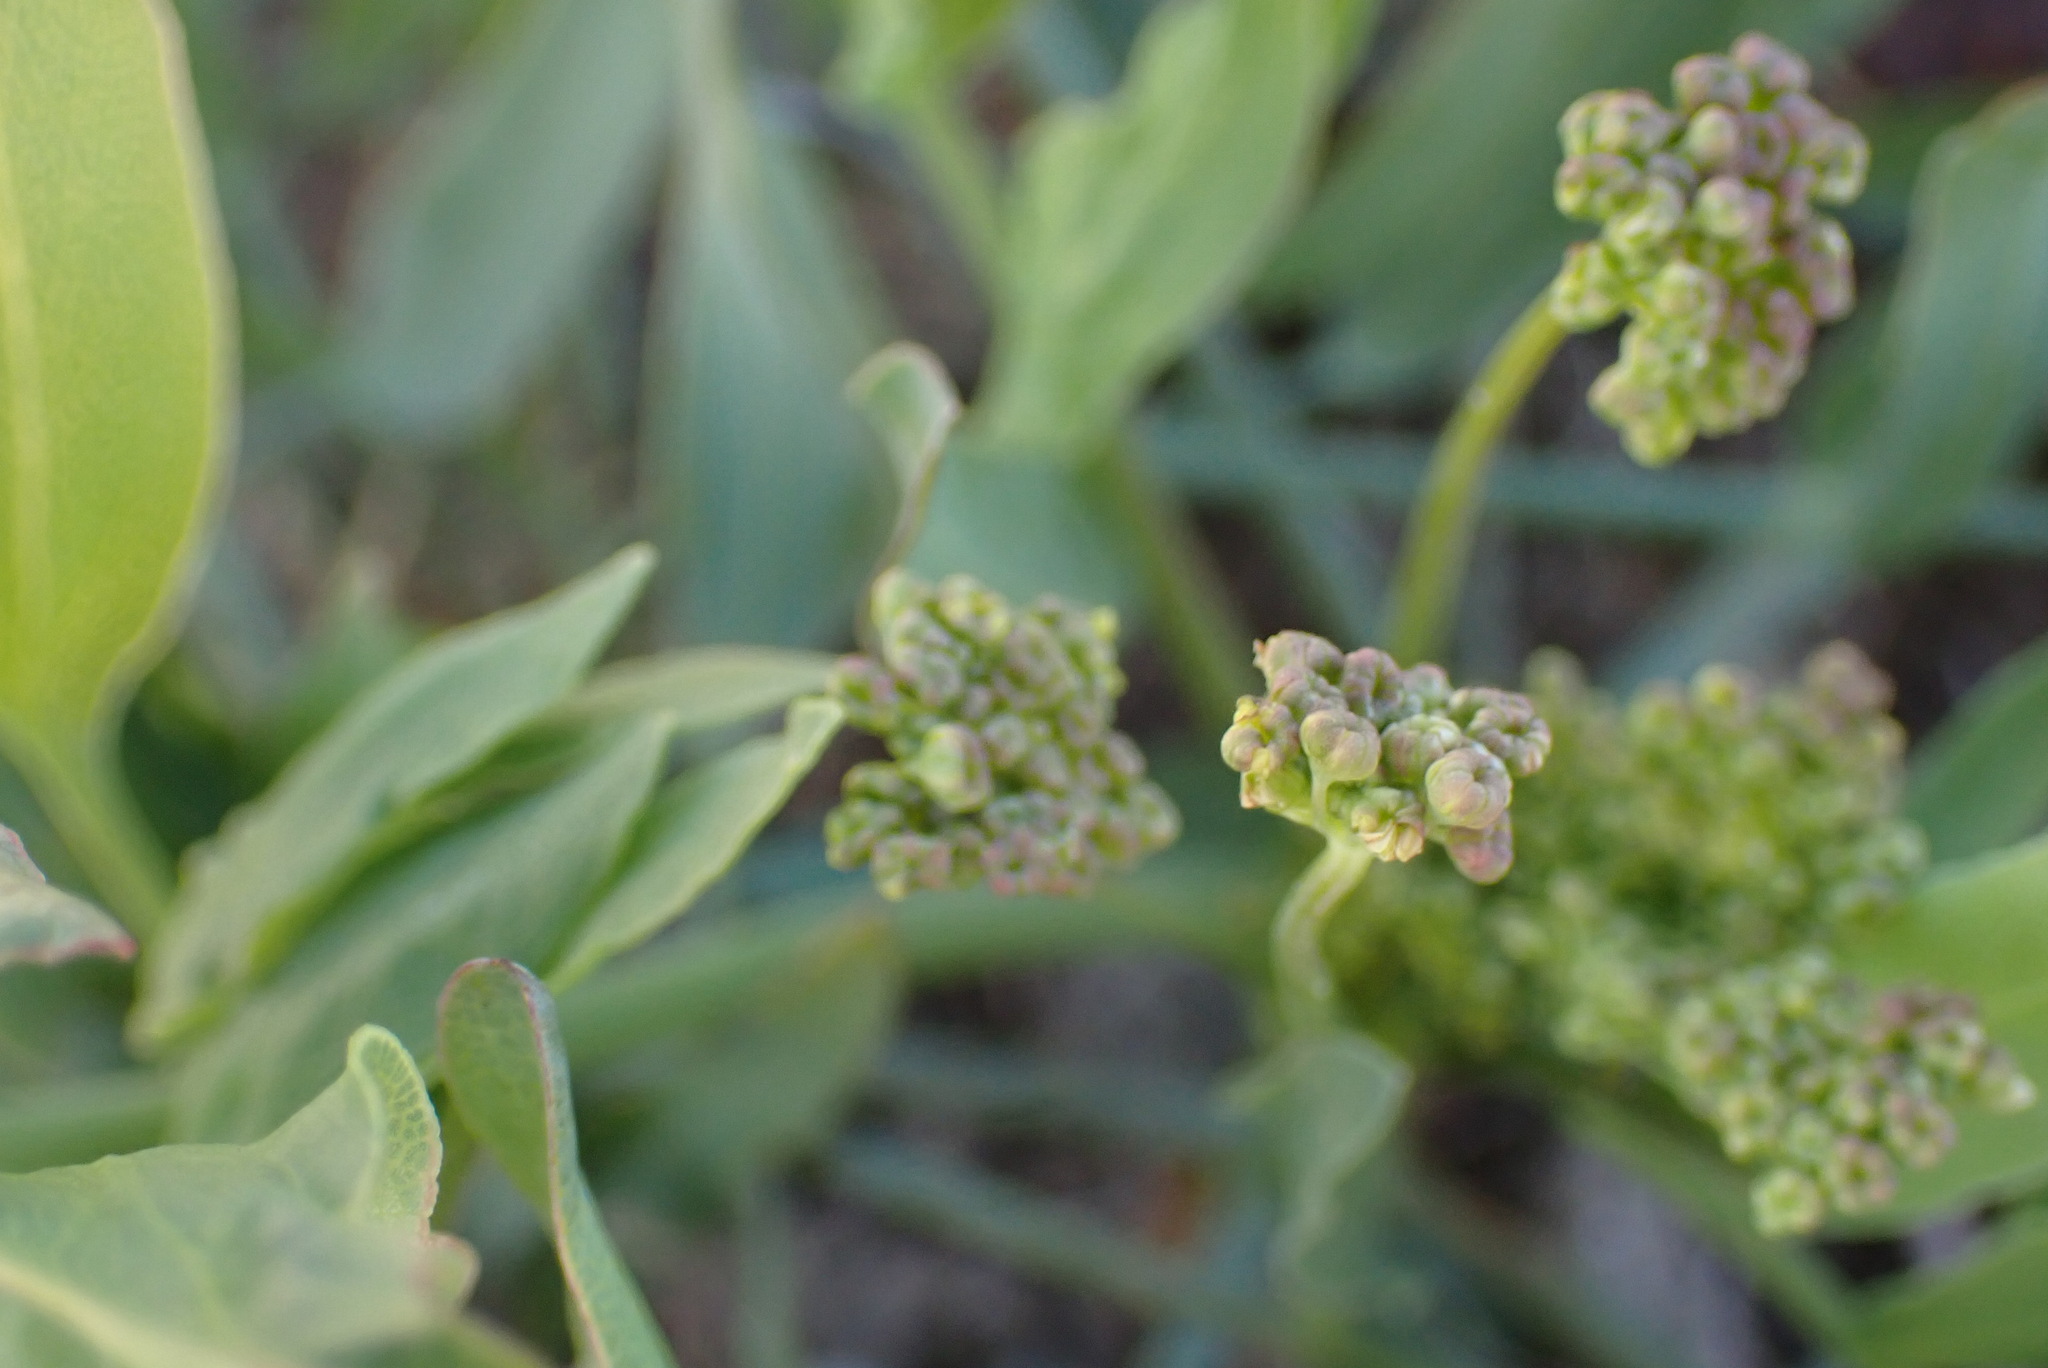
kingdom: Plantae
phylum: Tracheophyta
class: Magnoliopsida
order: Apiales
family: Apiaceae
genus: Lomatium
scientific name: Lomatium nudicaule
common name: Pestle lomatium
